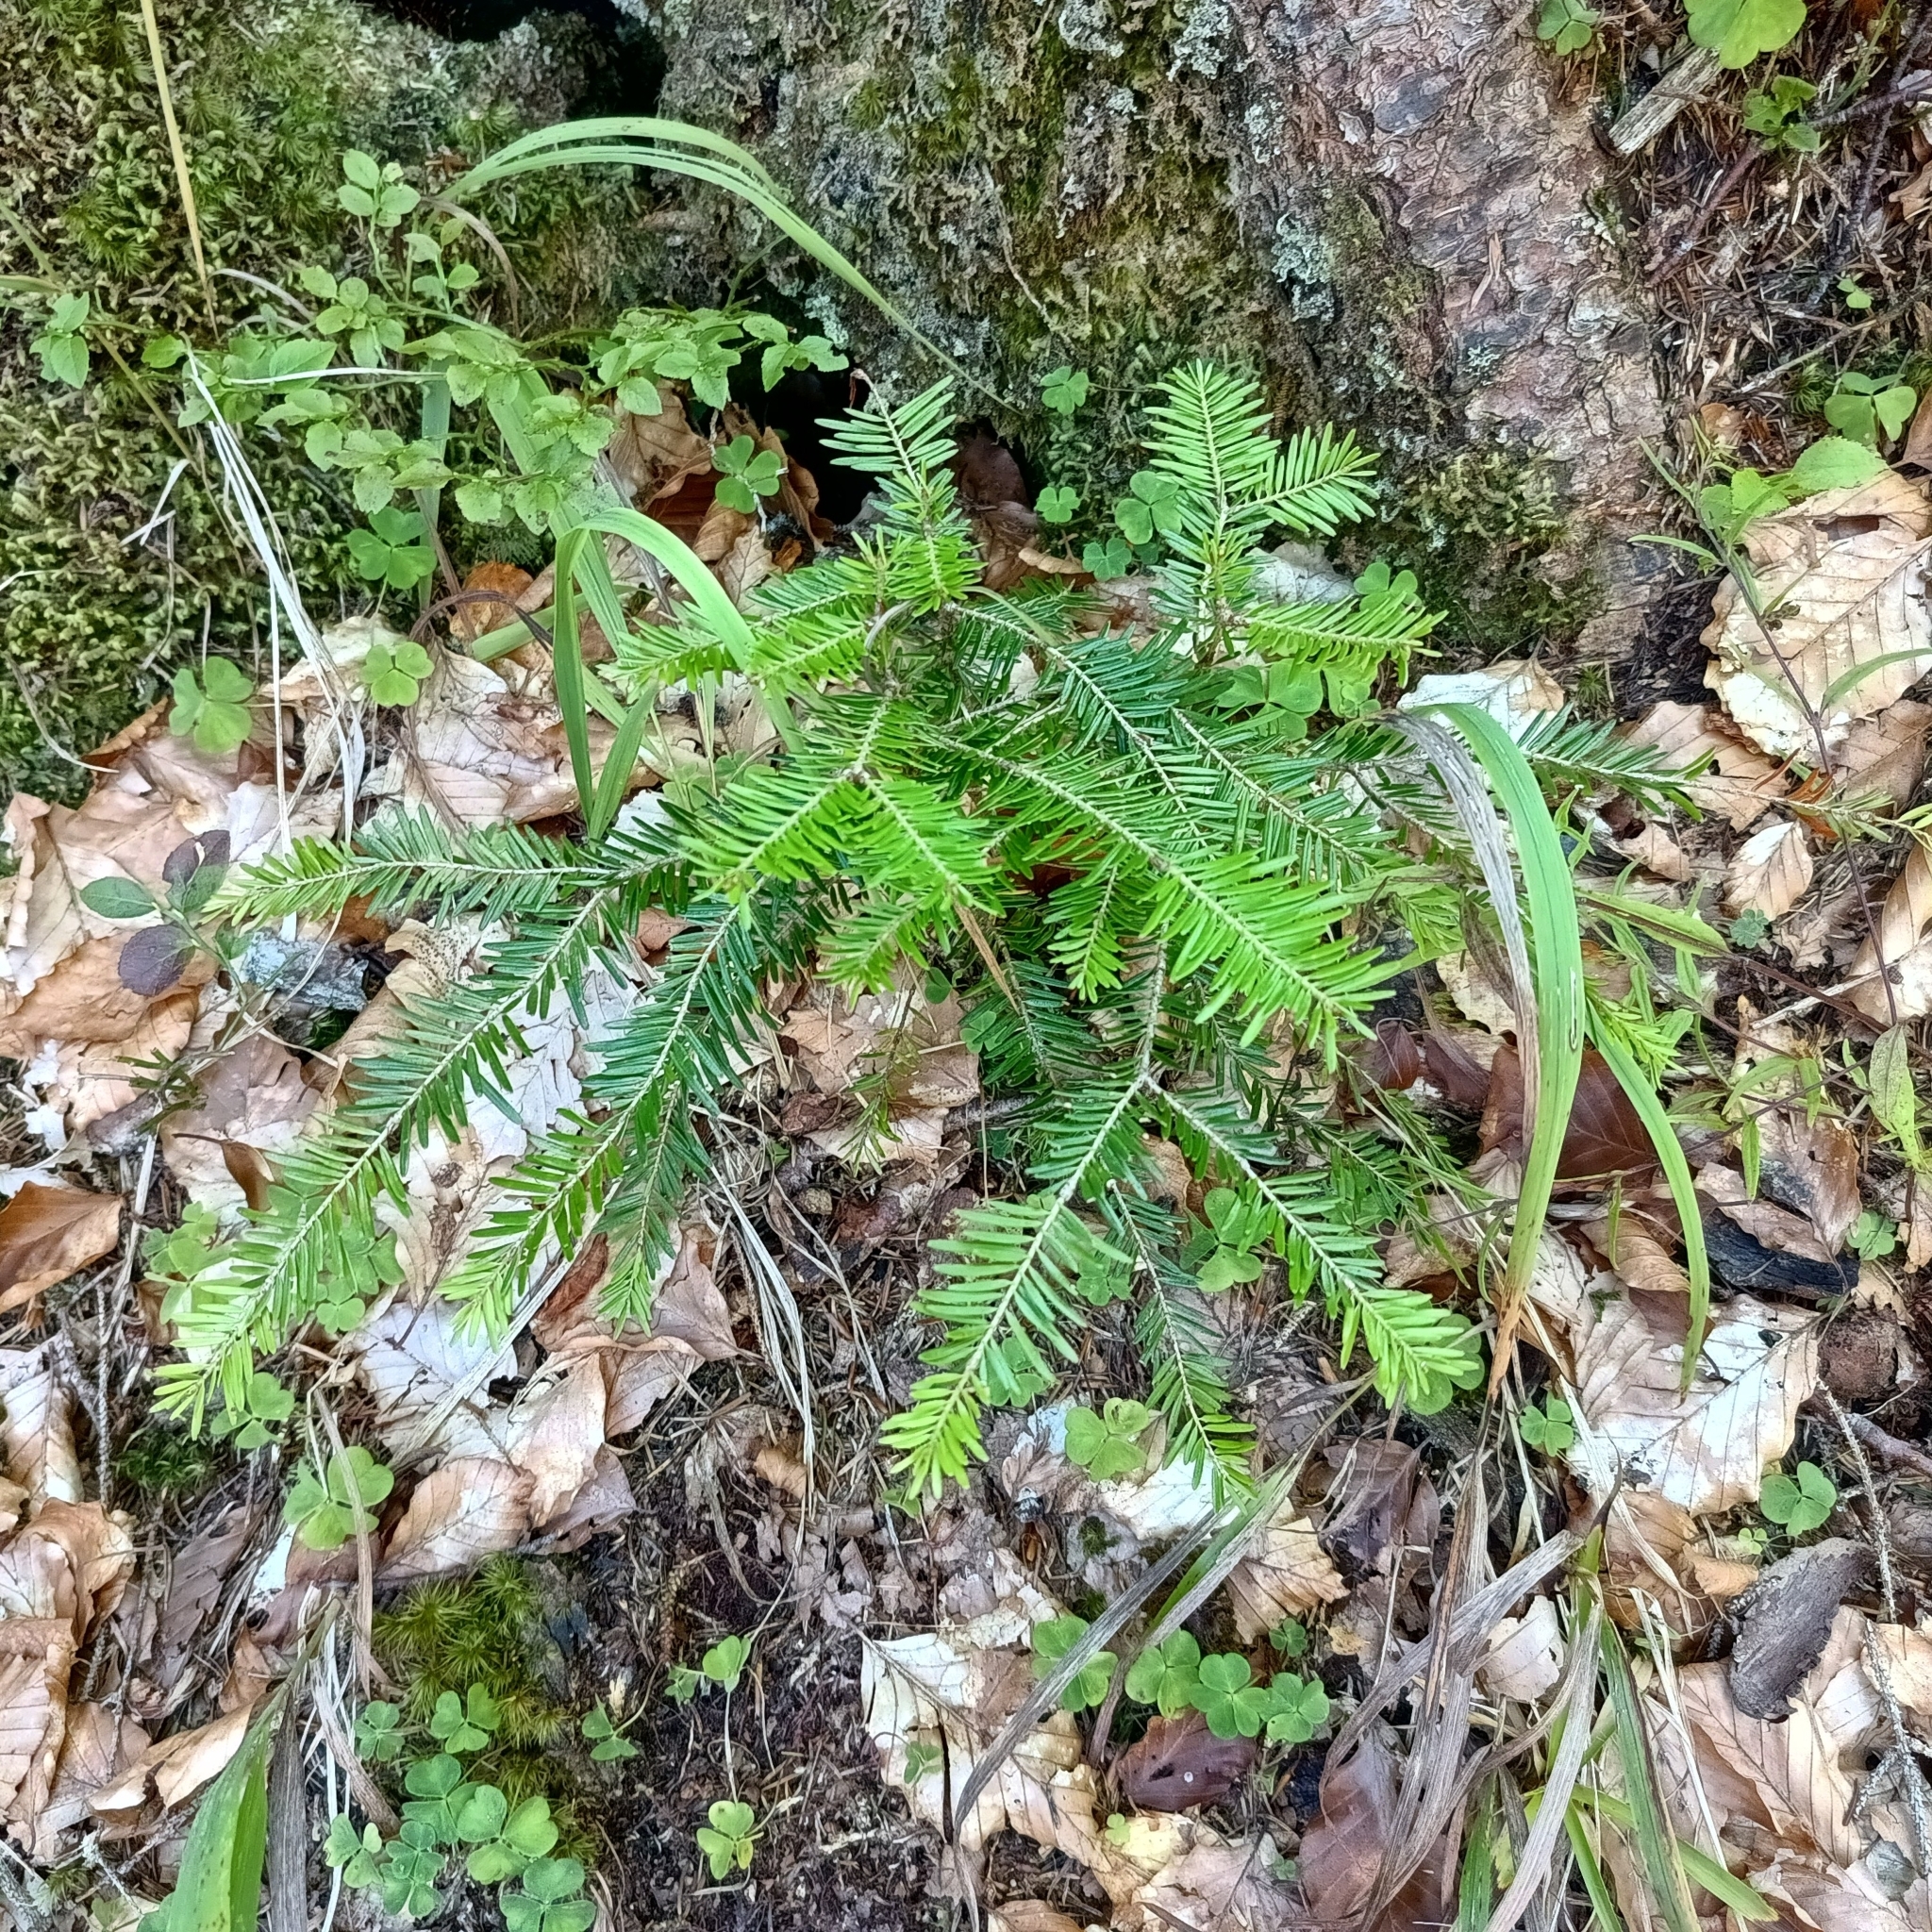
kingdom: Plantae
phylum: Tracheophyta
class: Pinopsida
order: Pinales
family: Pinaceae
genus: Abies
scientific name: Abies alba
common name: Silver fir
